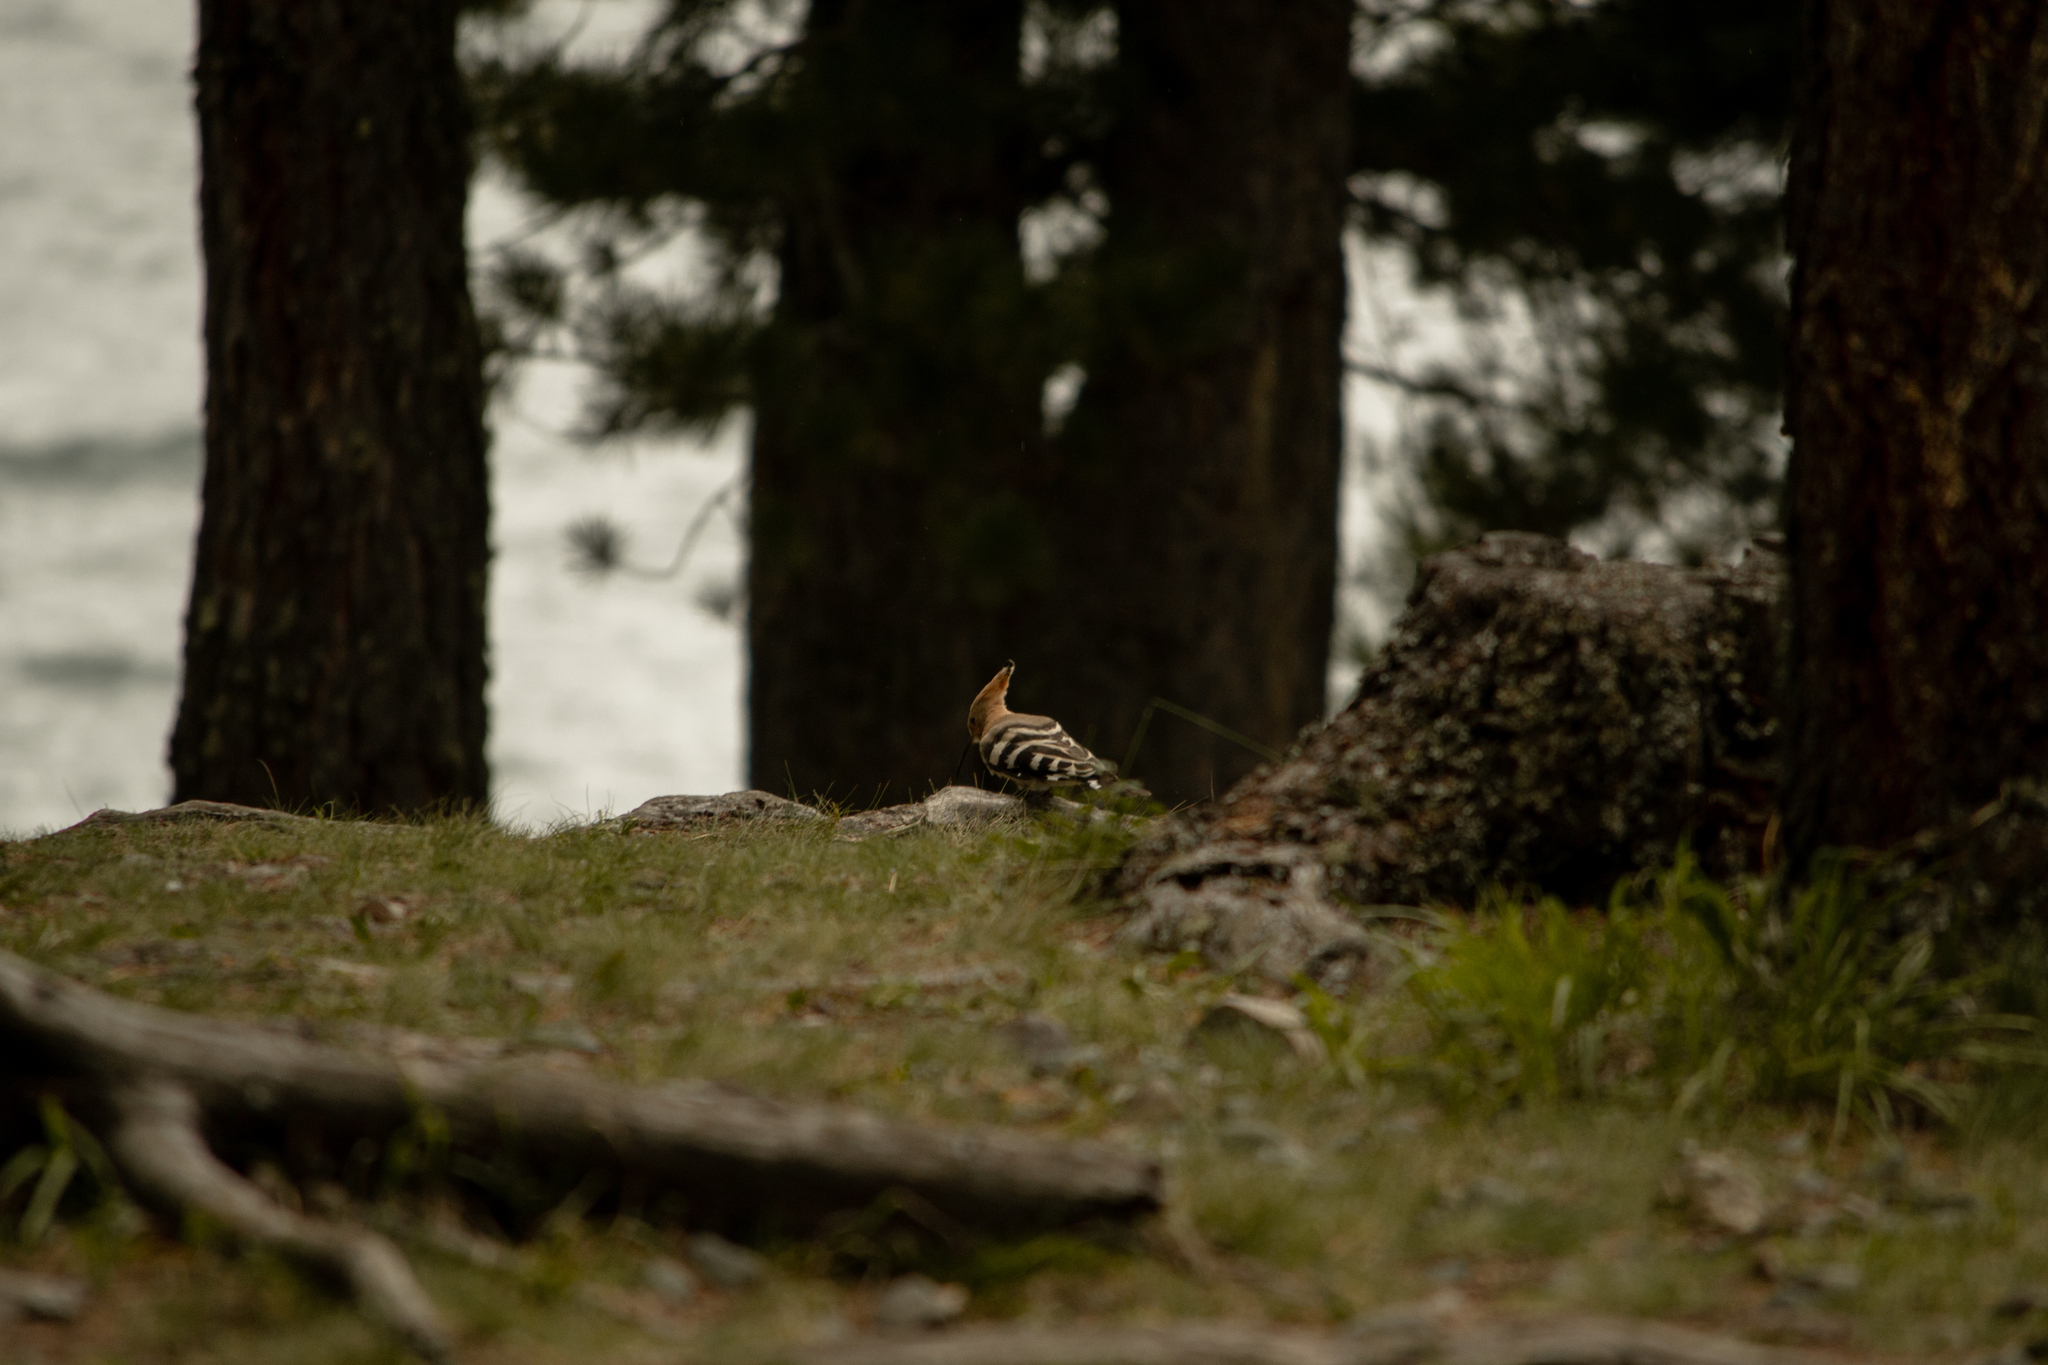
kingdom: Animalia
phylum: Chordata
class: Aves
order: Bucerotiformes
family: Upupidae
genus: Upupa
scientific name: Upupa epops
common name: Eurasian hoopoe
